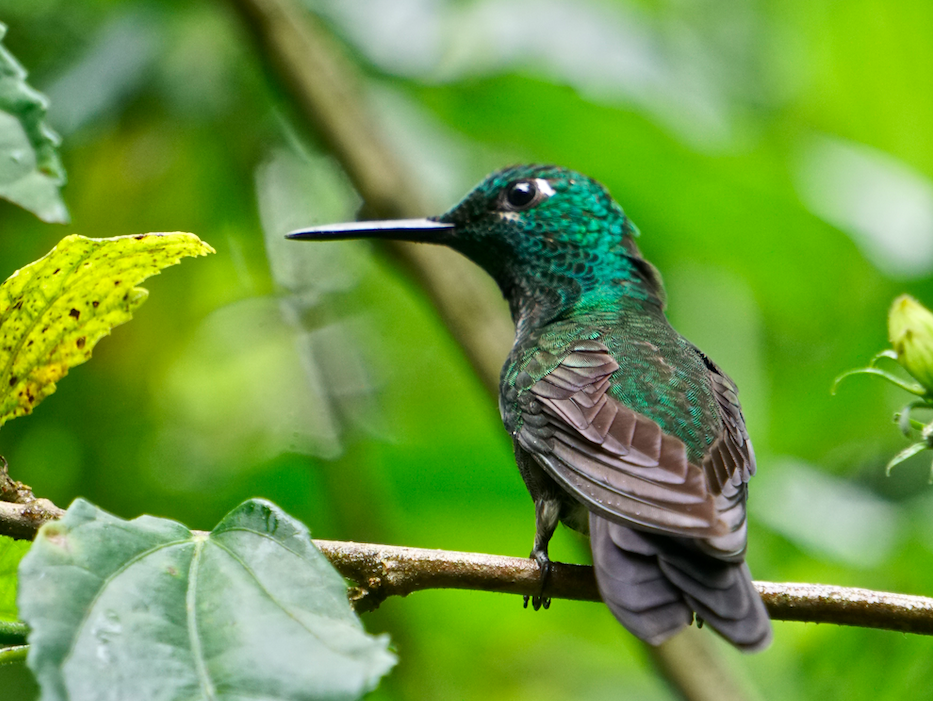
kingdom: Animalia
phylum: Chordata
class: Aves
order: Apodiformes
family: Trochilidae
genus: Heliodoxa
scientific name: Heliodoxa jacula
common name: Green-crowned brilliant
